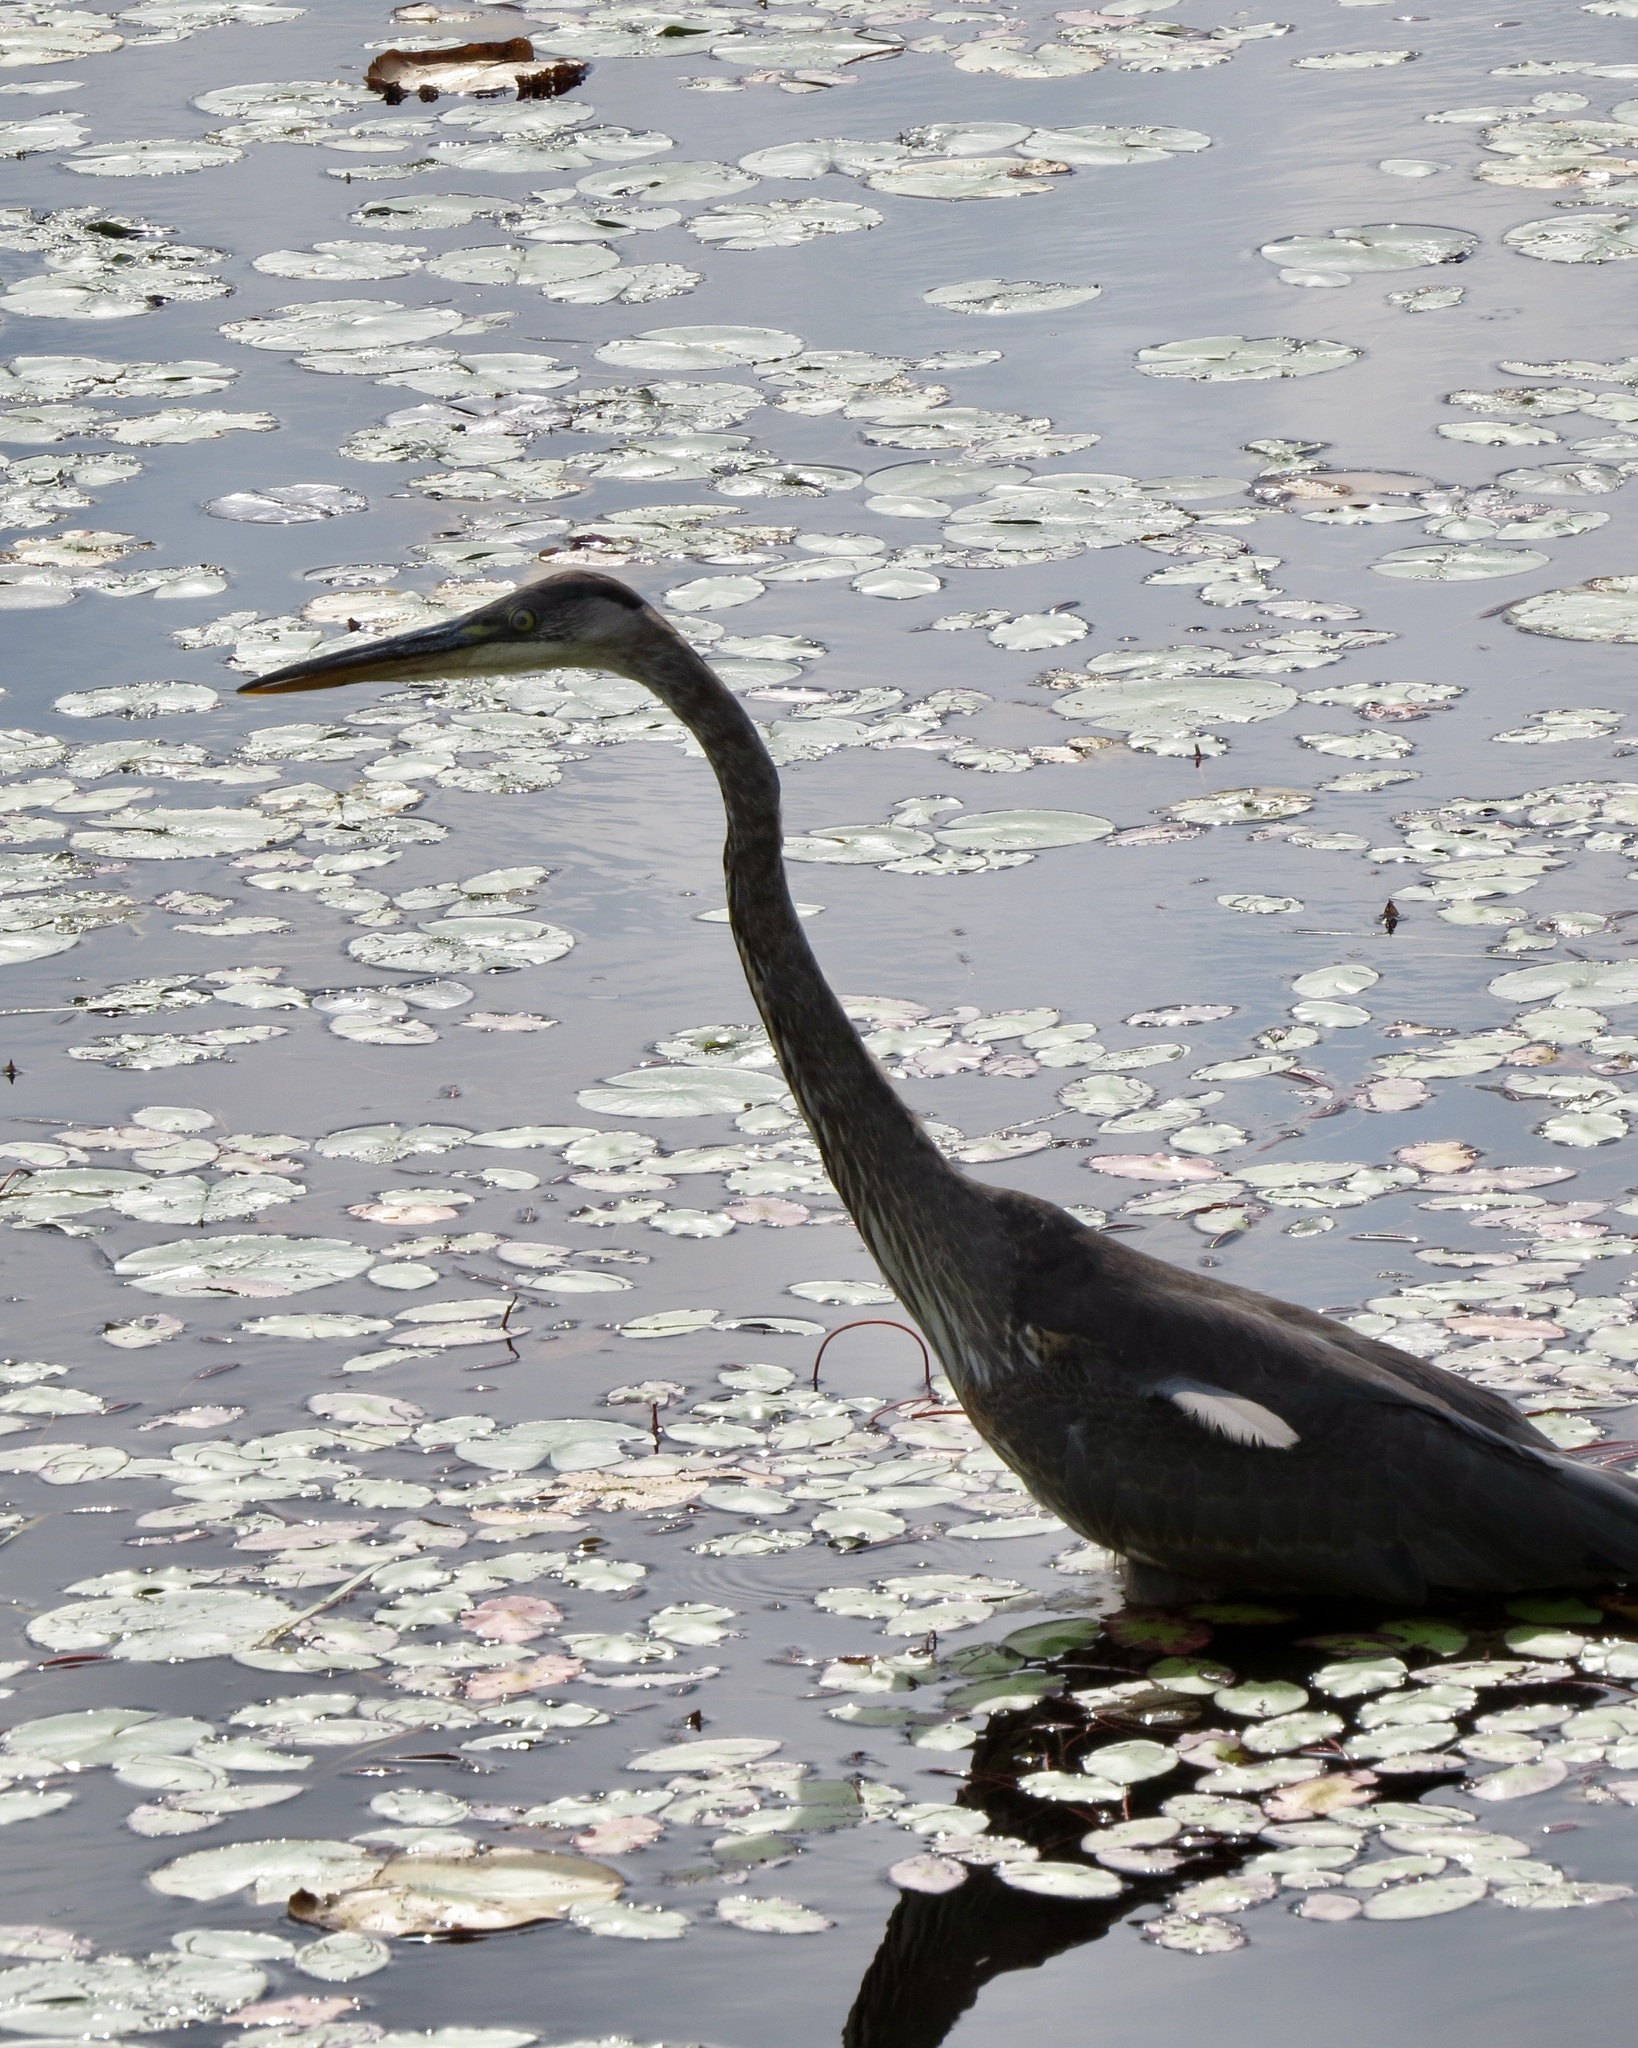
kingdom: Animalia
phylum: Chordata
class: Aves
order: Pelecaniformes
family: Ardeidae
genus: Ardea
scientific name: Ardea herodias
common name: Great blue heron
